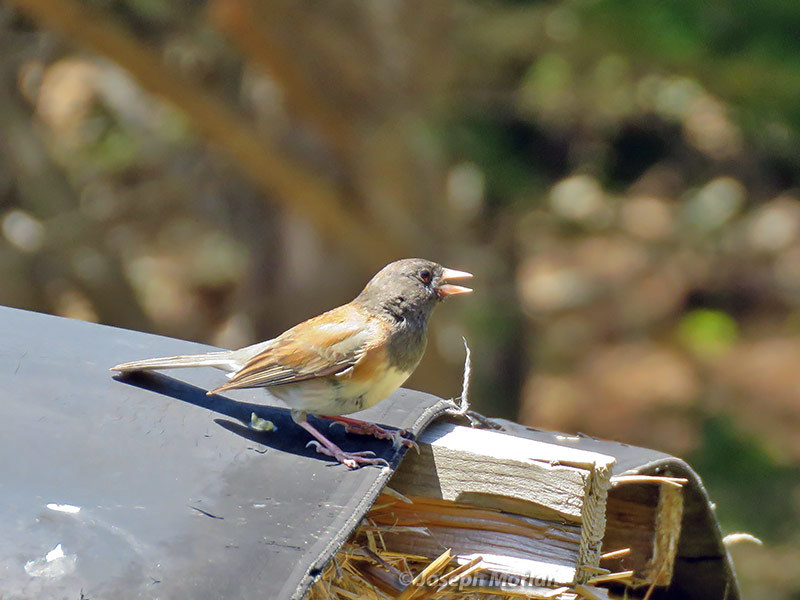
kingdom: Animalia
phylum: Chordata
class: Aves
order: Passeriformes
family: Passerellidae
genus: Junco
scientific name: Junco hyemalis
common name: Dark-eyed junco
